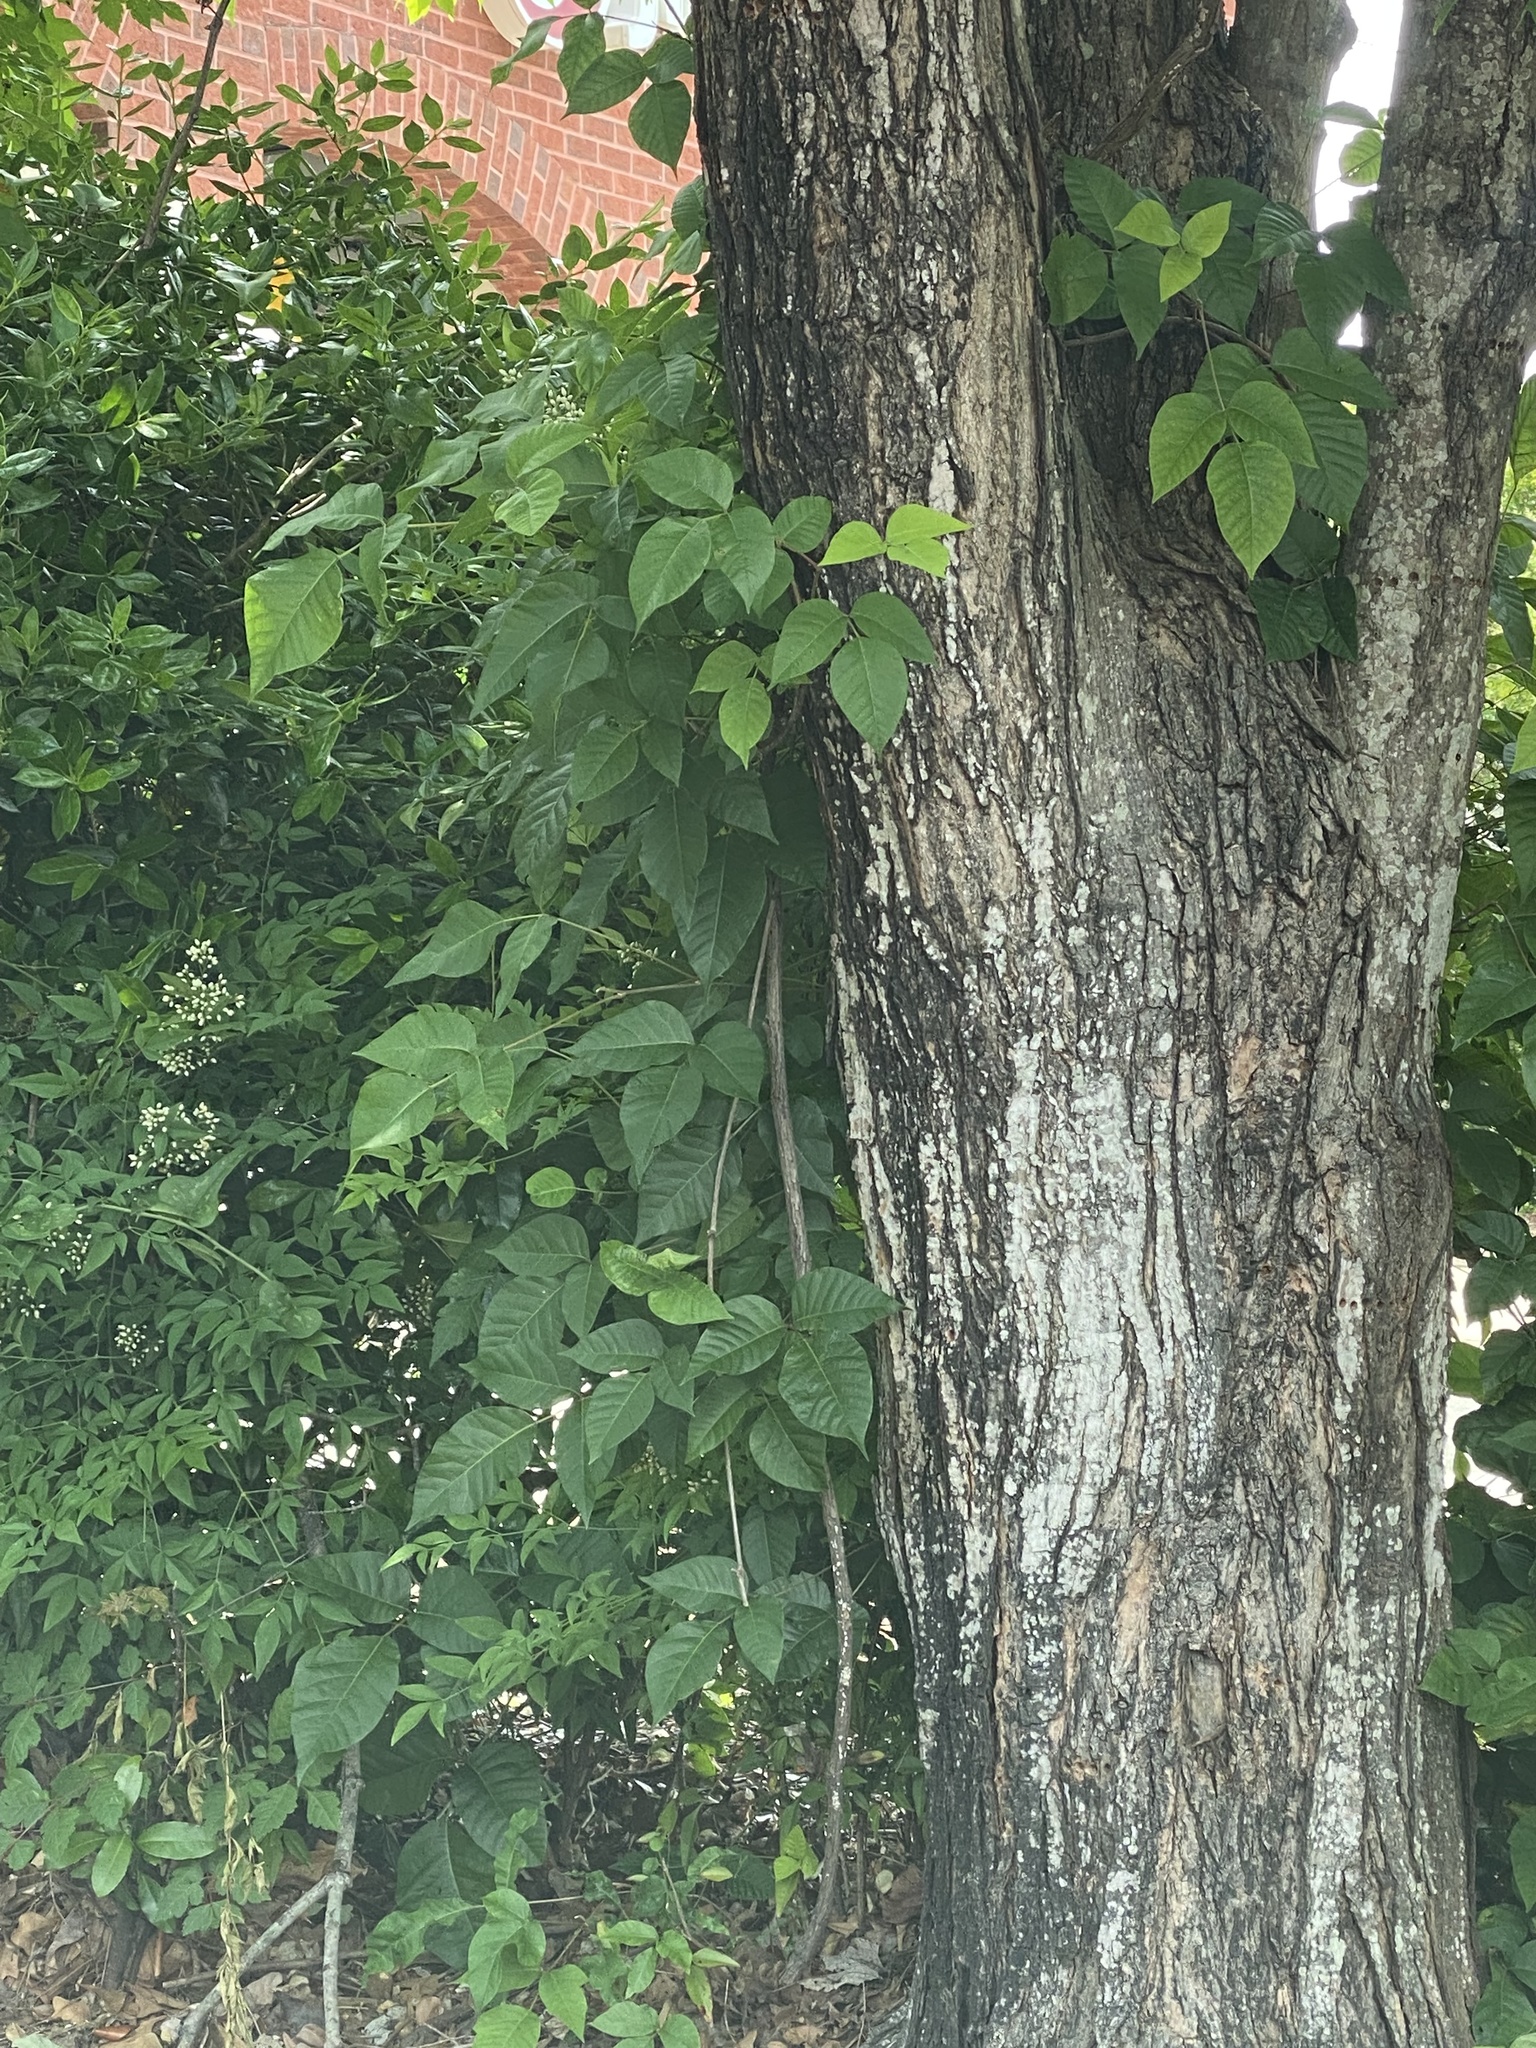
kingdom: Plantae
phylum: Tracheophyta
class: Magnoliopsida
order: Sapindales
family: Anacardiaceae
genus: Toxicodendron
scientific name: Toxicodendron radicans
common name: Poison ivy
